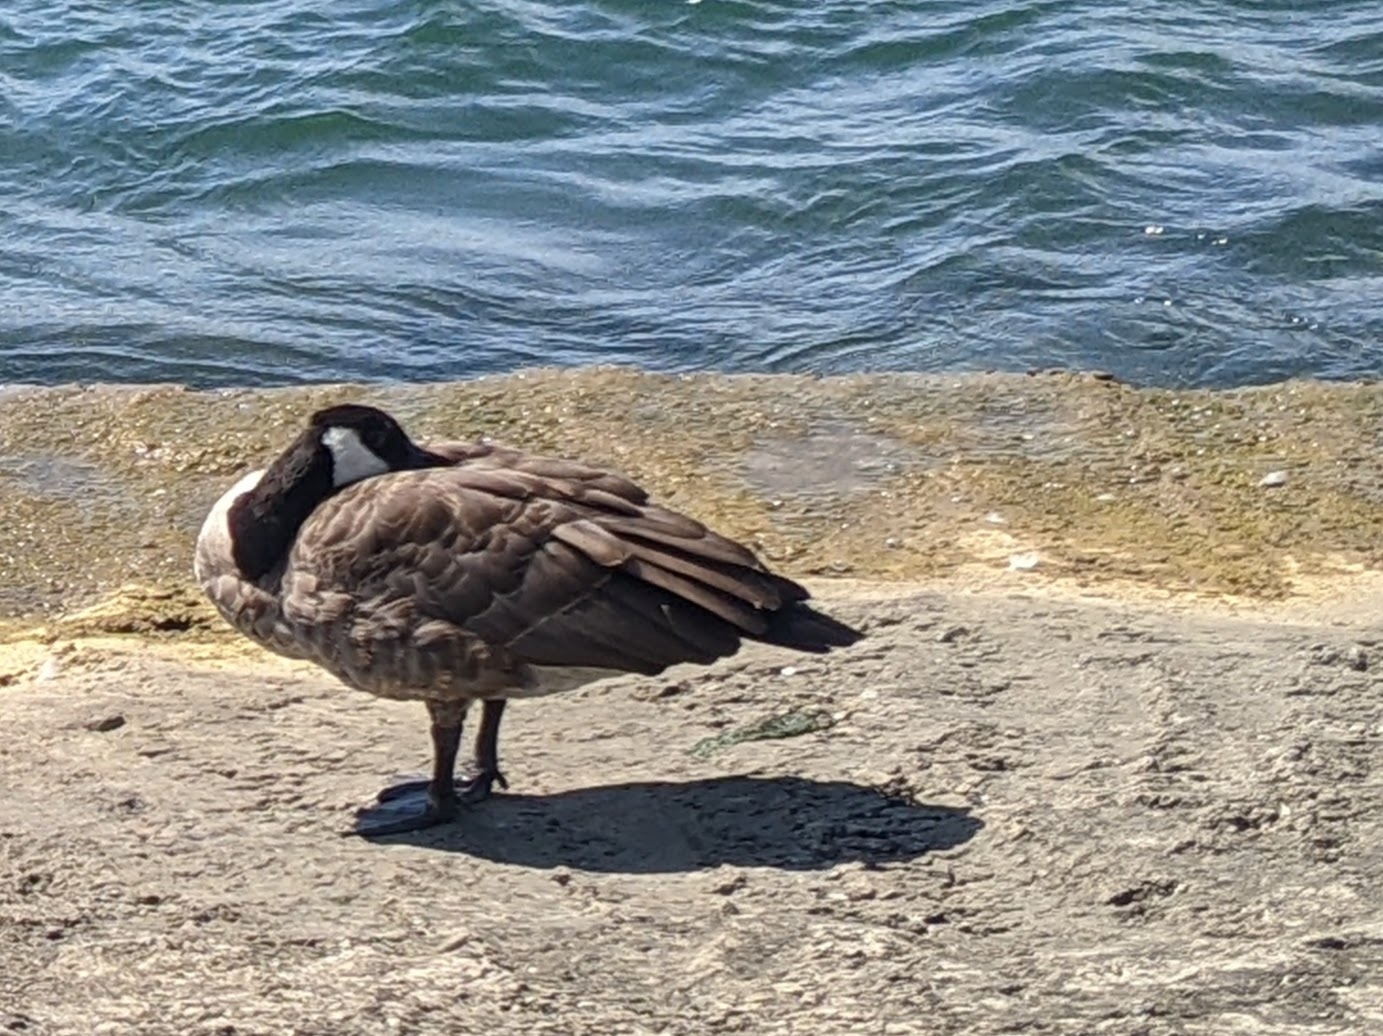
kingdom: Animalia
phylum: Chordata
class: Aves
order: Anseriformes
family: Anatidae
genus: Branta
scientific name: Branta canadensis
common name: Canada goose
